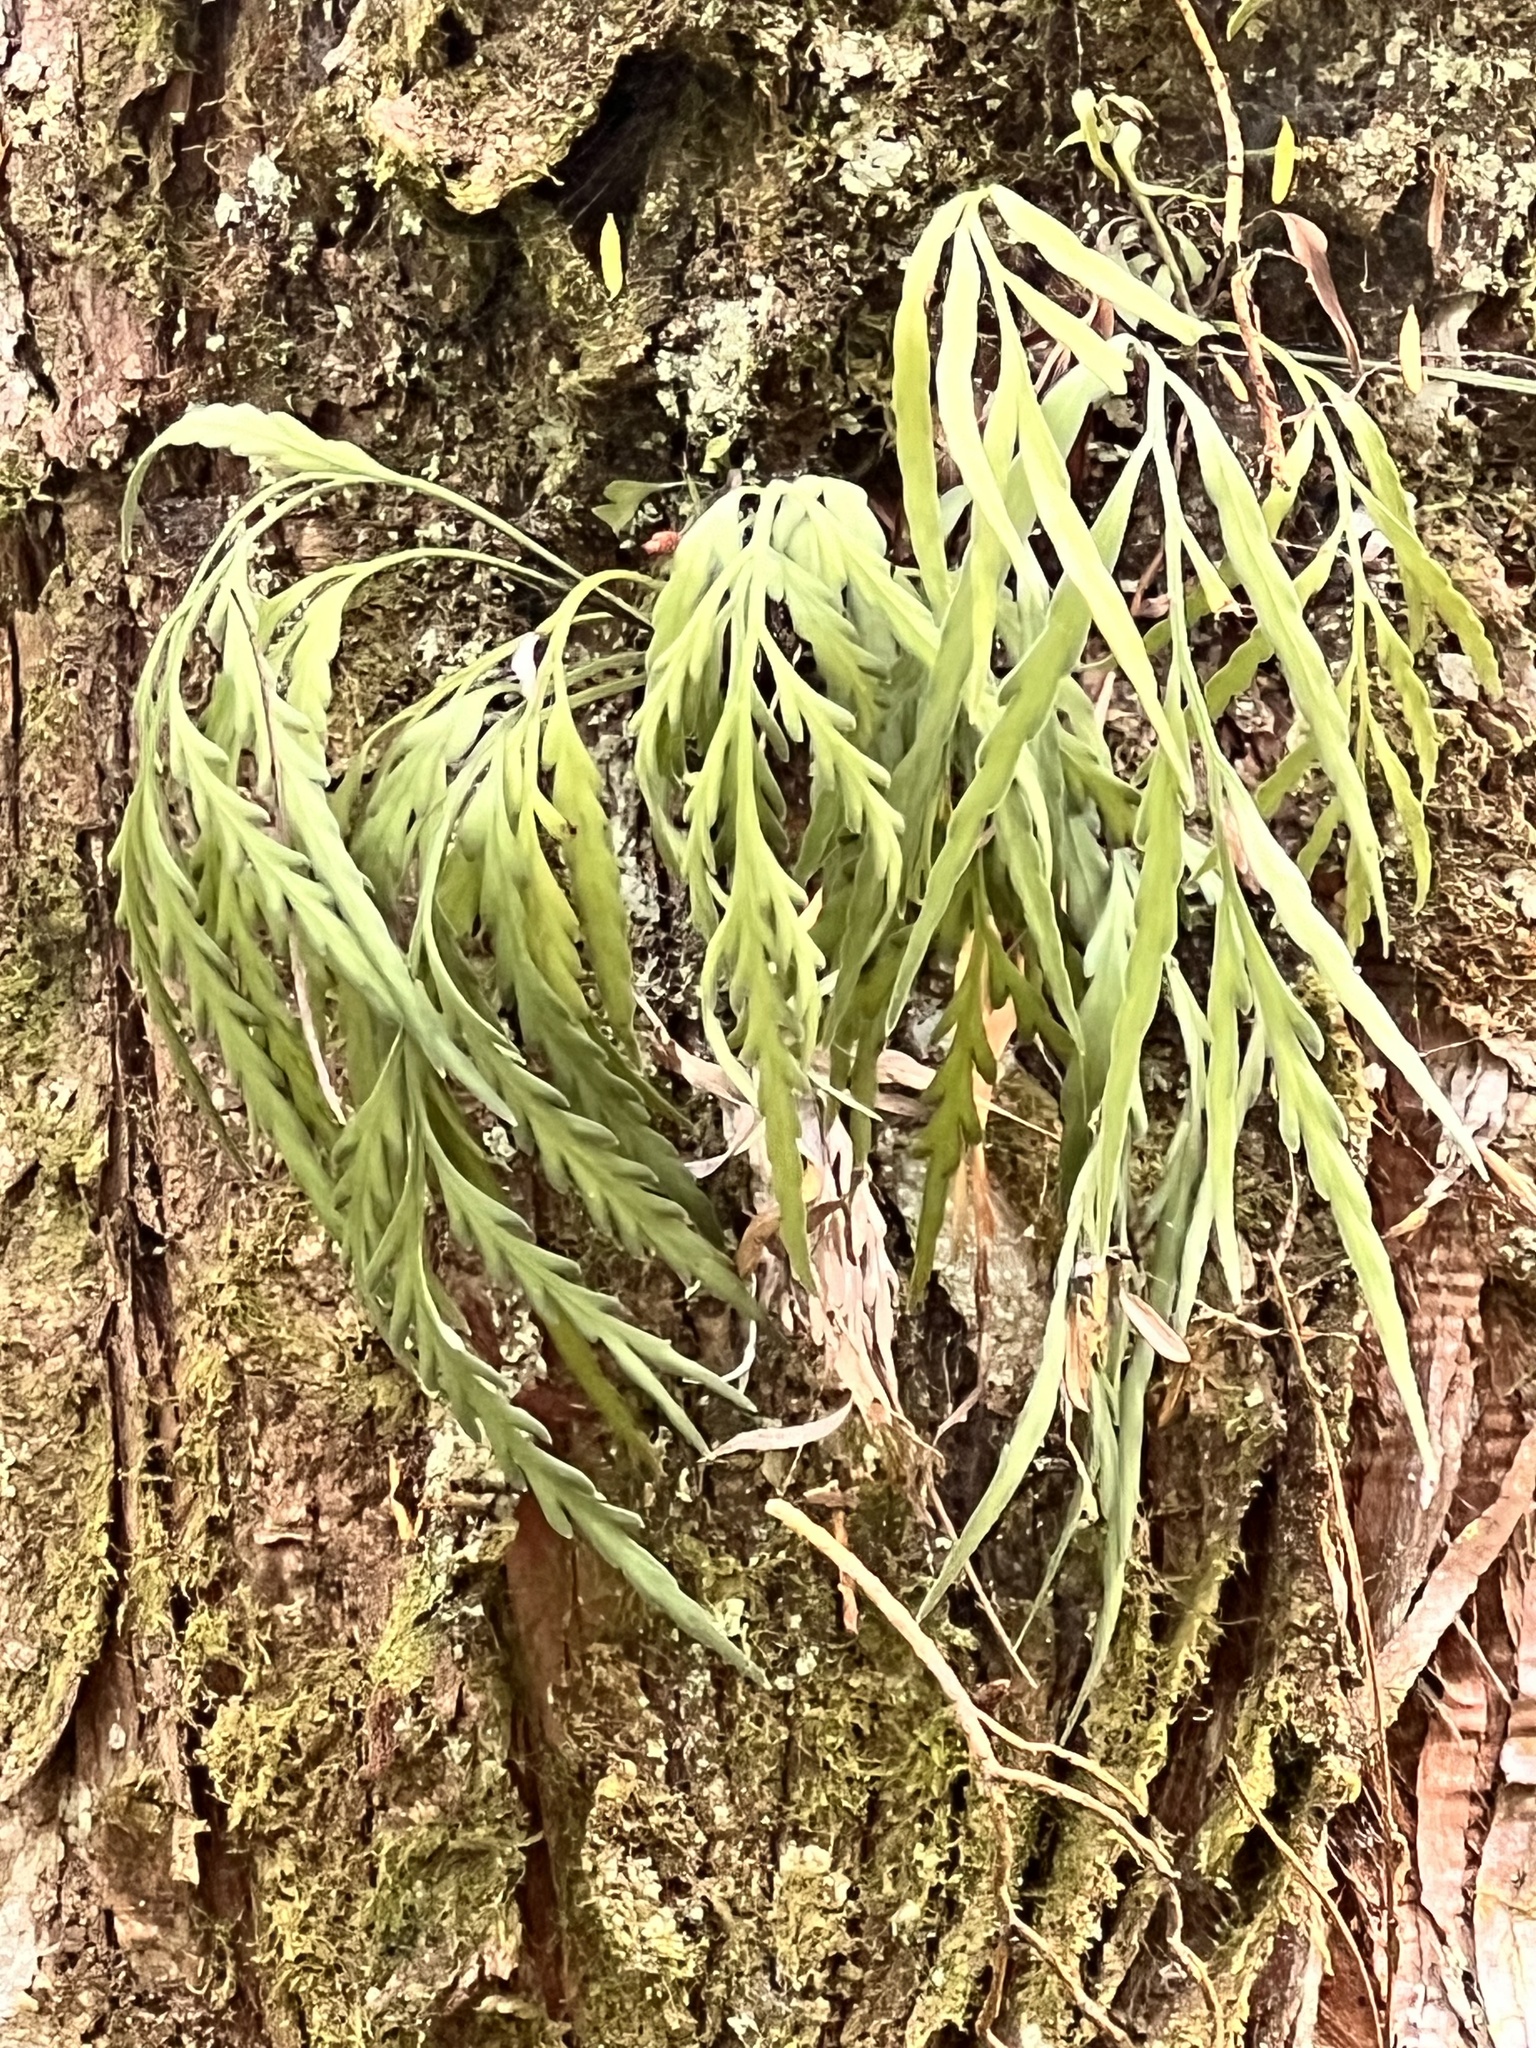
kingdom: Plantae
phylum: Tracheophyta
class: Polypodiopsida
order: Polypodiales
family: Aspleniaceae
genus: Asplenium
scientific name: Asplenium flaccidum
